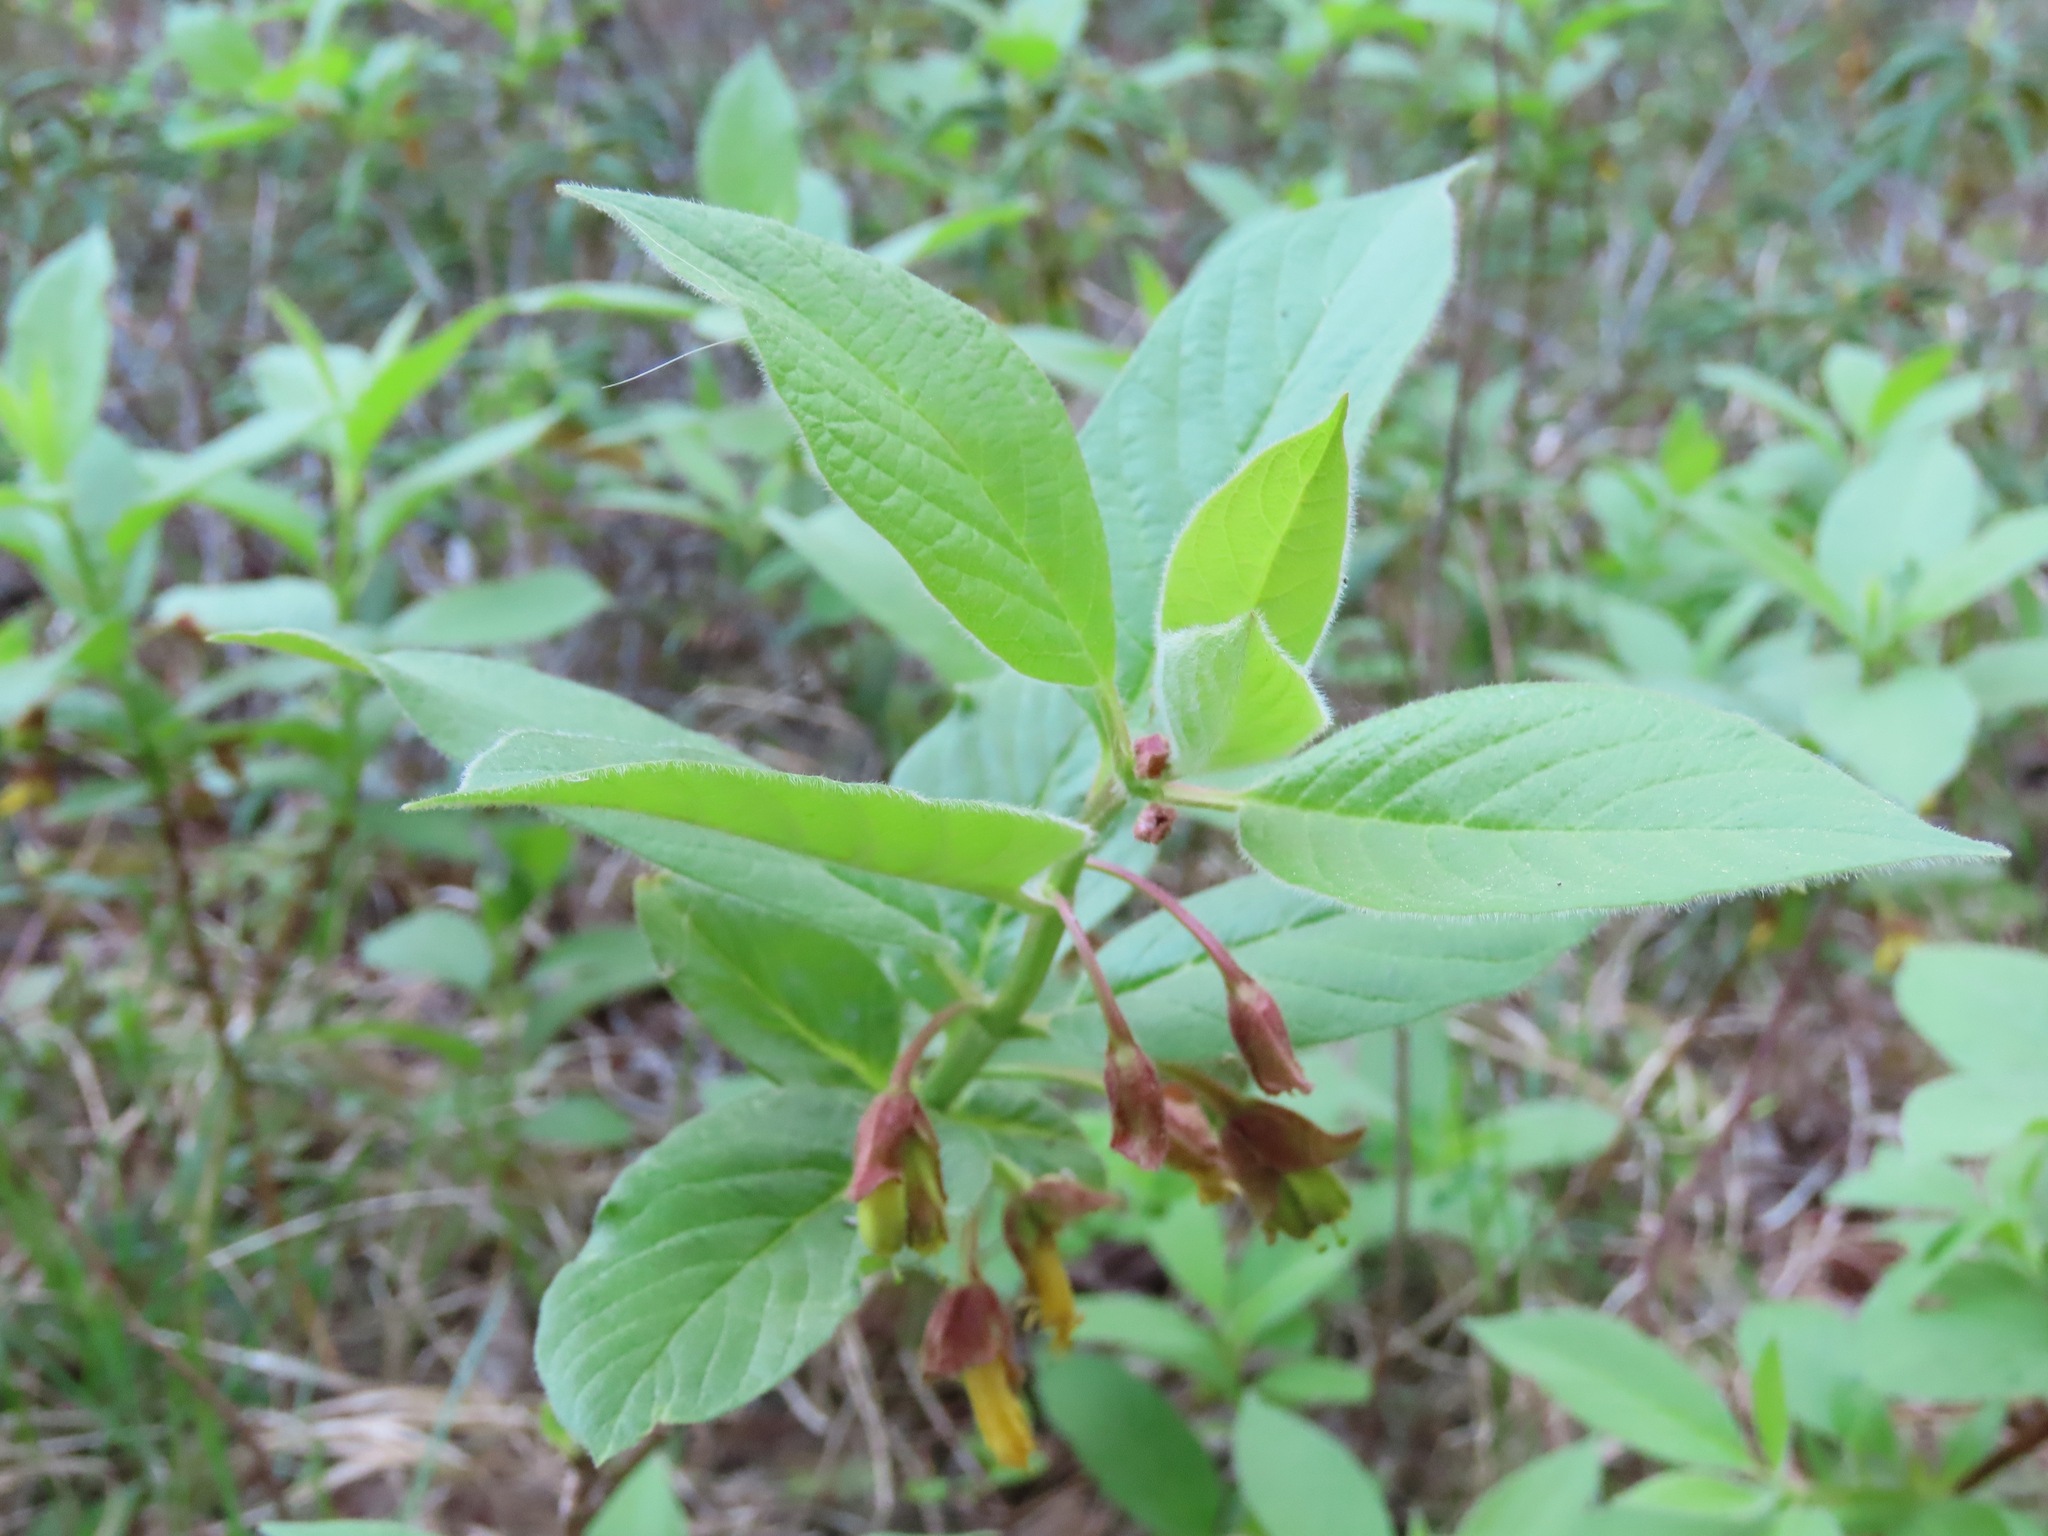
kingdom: Plantae
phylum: Tracheophyta
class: Magnoliopsida
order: Dipsacales
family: Caprifoliaceae
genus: Lonicera
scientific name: Lonicera involucrata
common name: Californian honeysuckle
